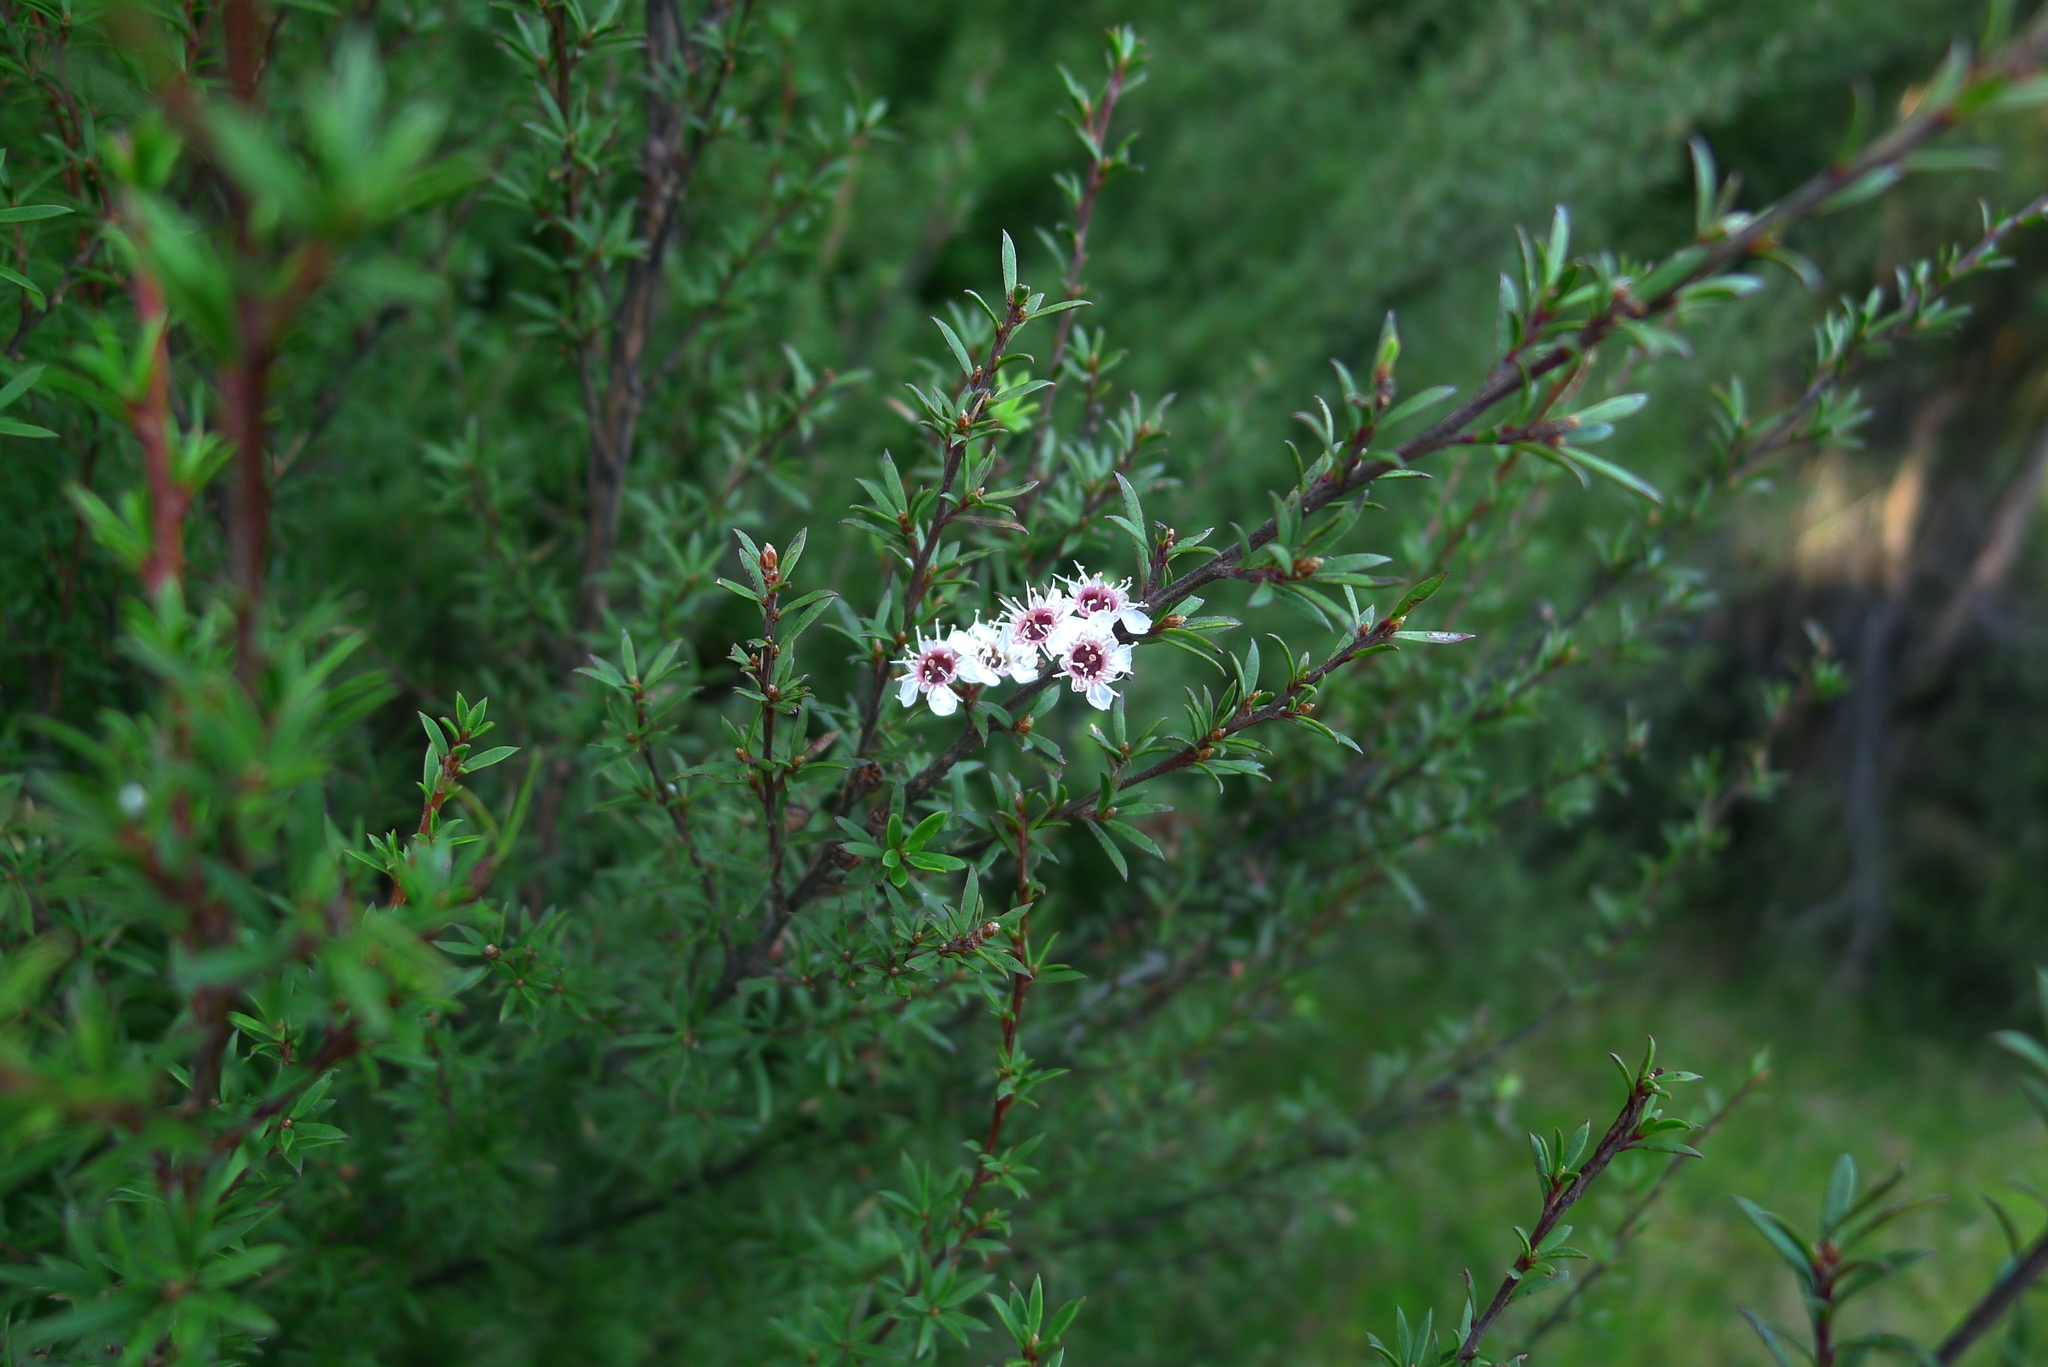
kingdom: Plantae
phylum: Tracheophyta
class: Magnoliopsida
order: Myrtales
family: Myrtaceae
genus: Kunzea
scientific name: Kunzea robusta
